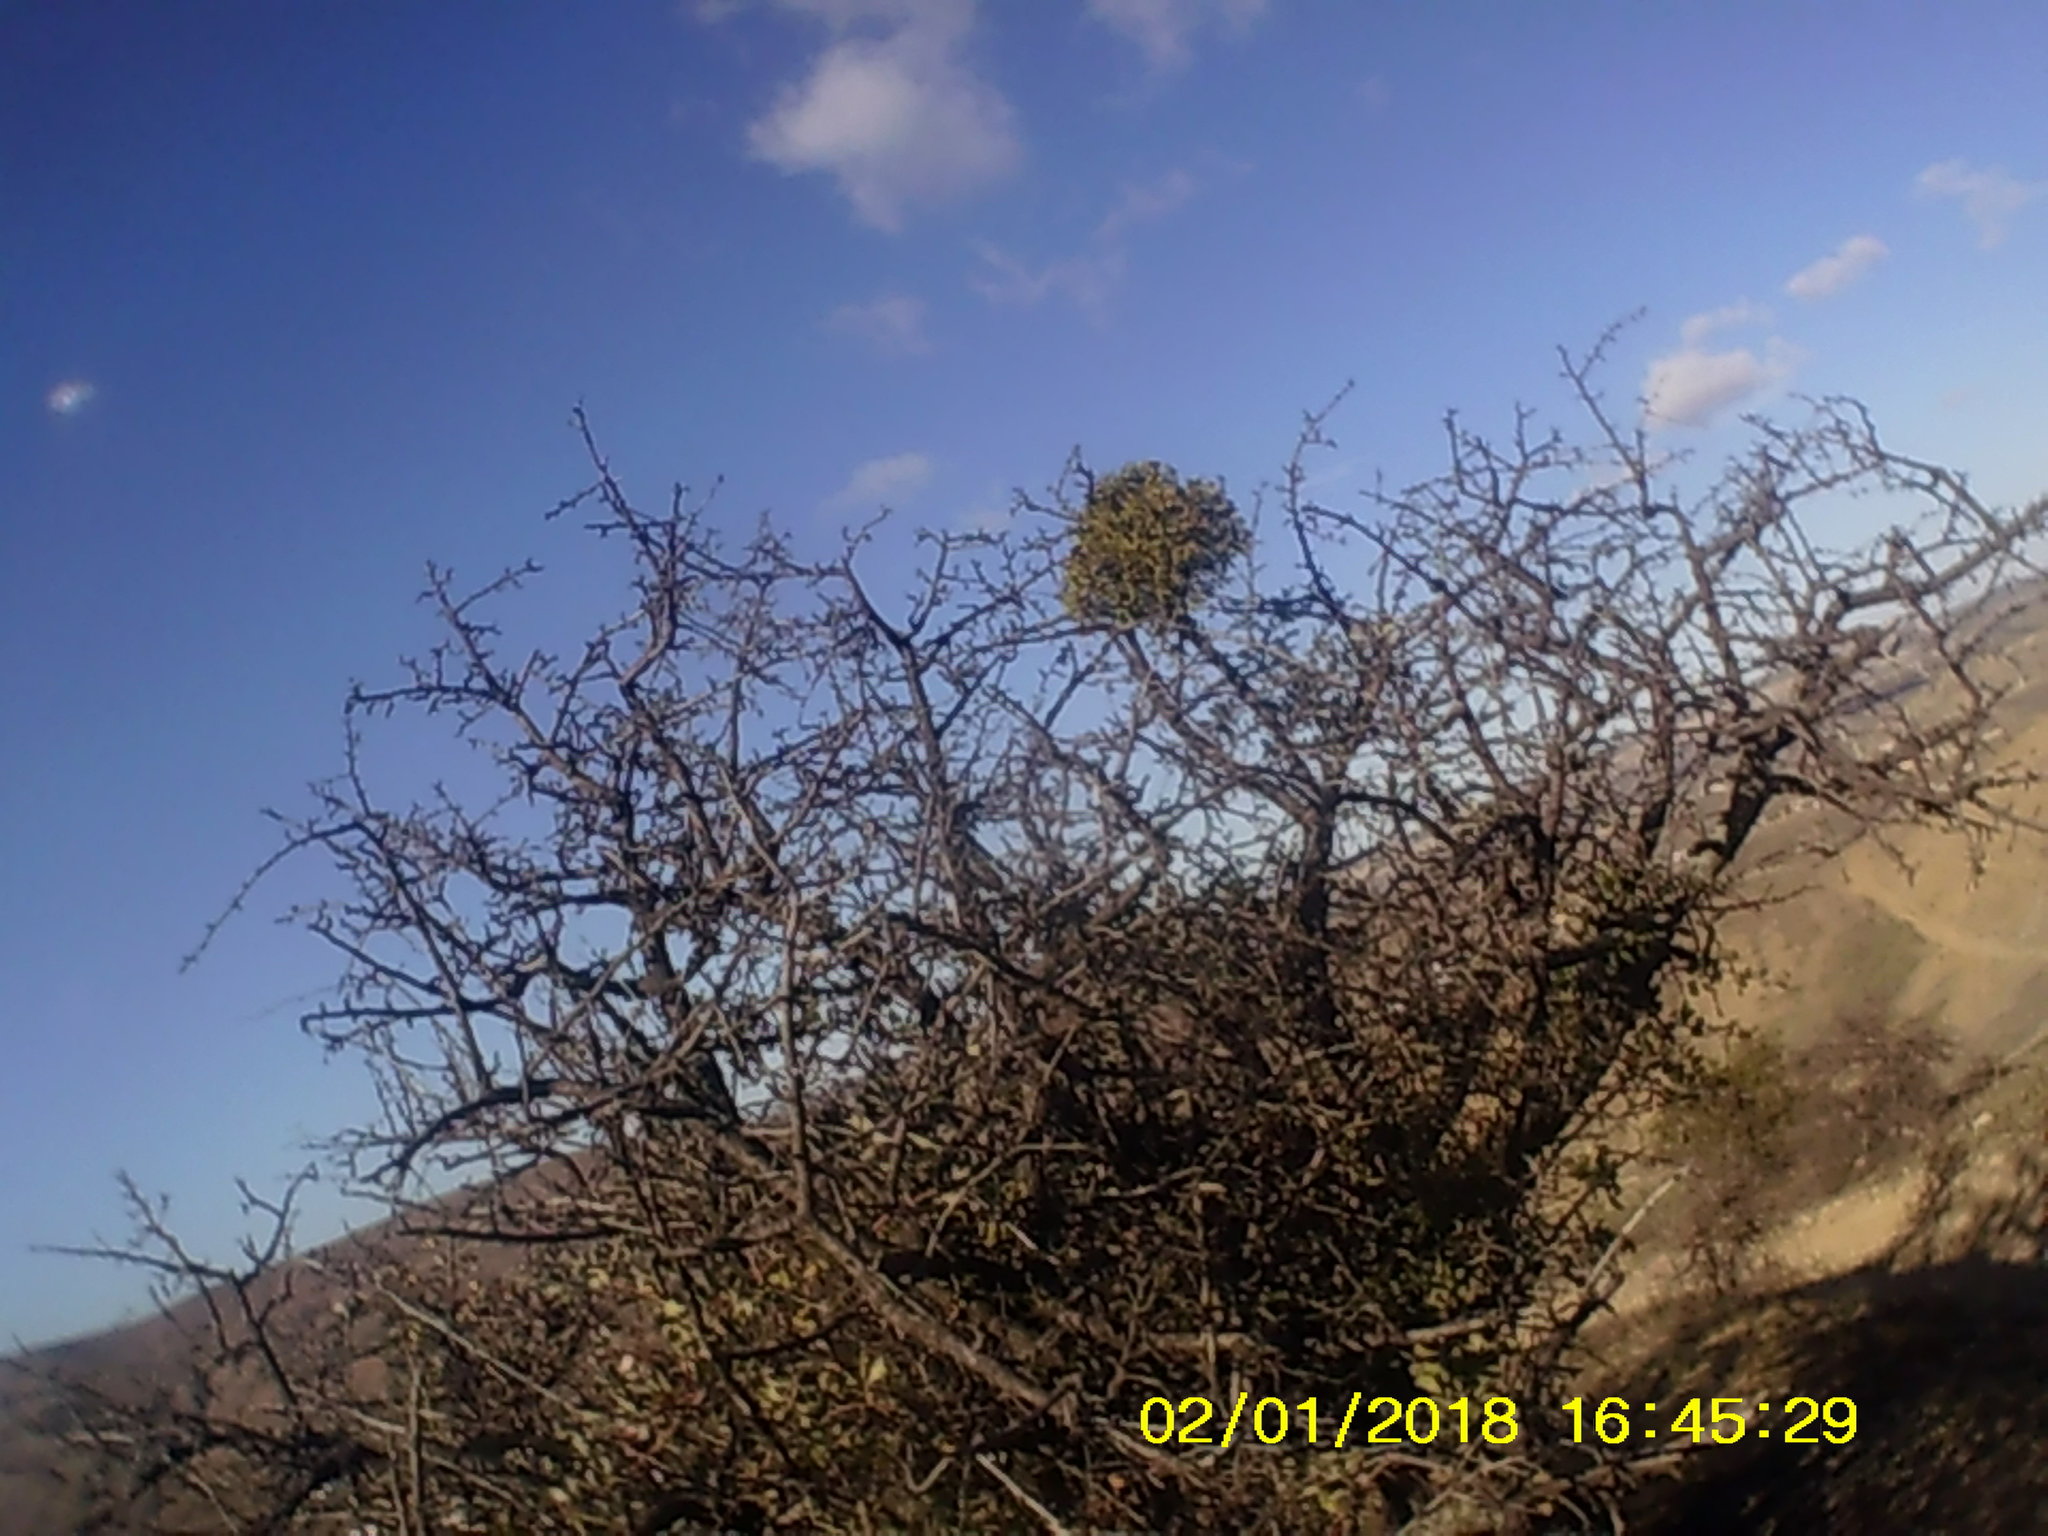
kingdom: Plantae
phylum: Tracheophyta
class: Magnoliopsida
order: Santalales
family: Viscaceae
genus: Viscum
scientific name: Viscum album
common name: Mistletoe
